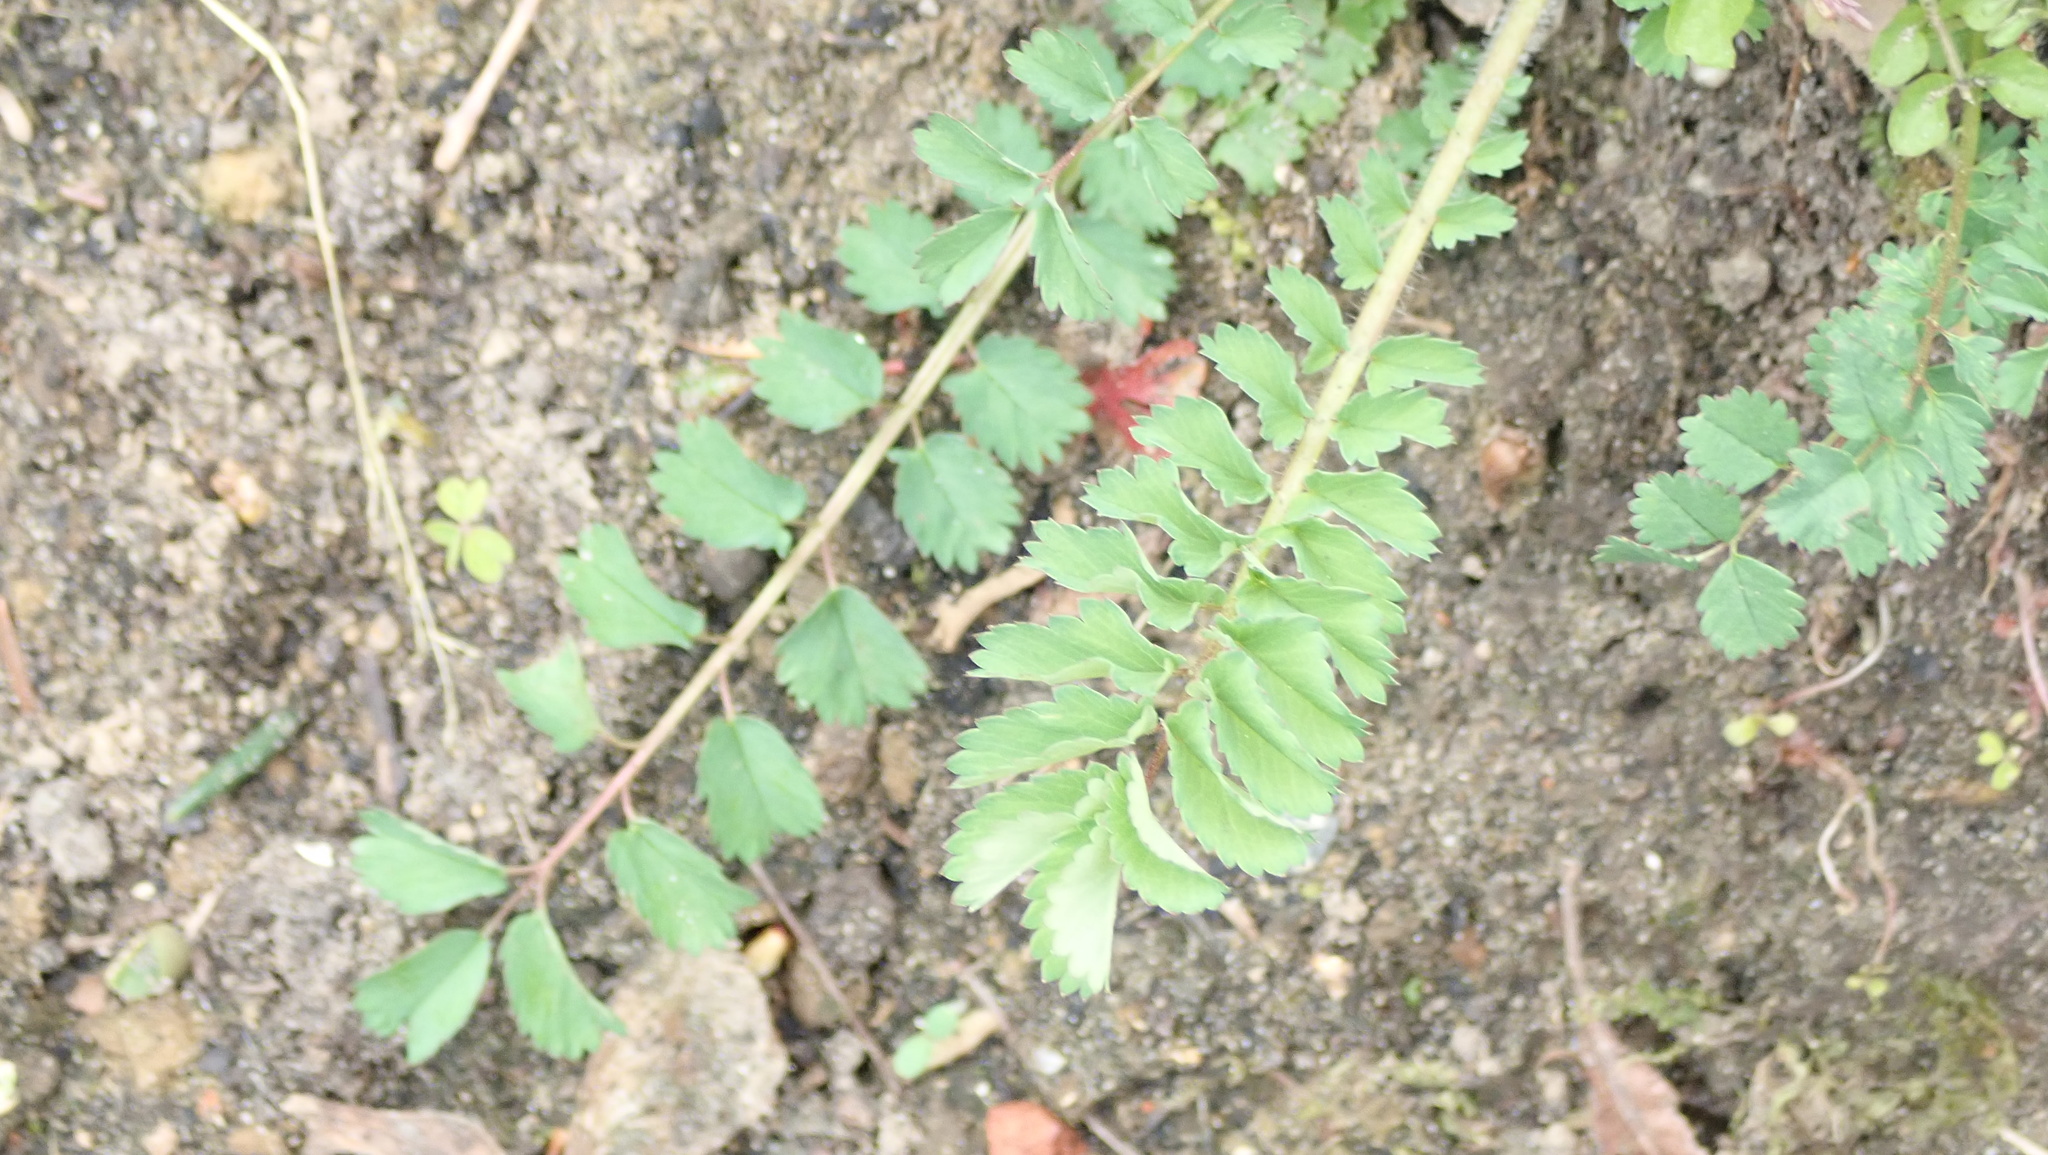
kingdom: Plantae
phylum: Tracheophyta
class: Magnoliopsida
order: Rosales
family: Rosaceae
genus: Poterium
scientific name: Poterium sanguisorba
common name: Salad burnet
